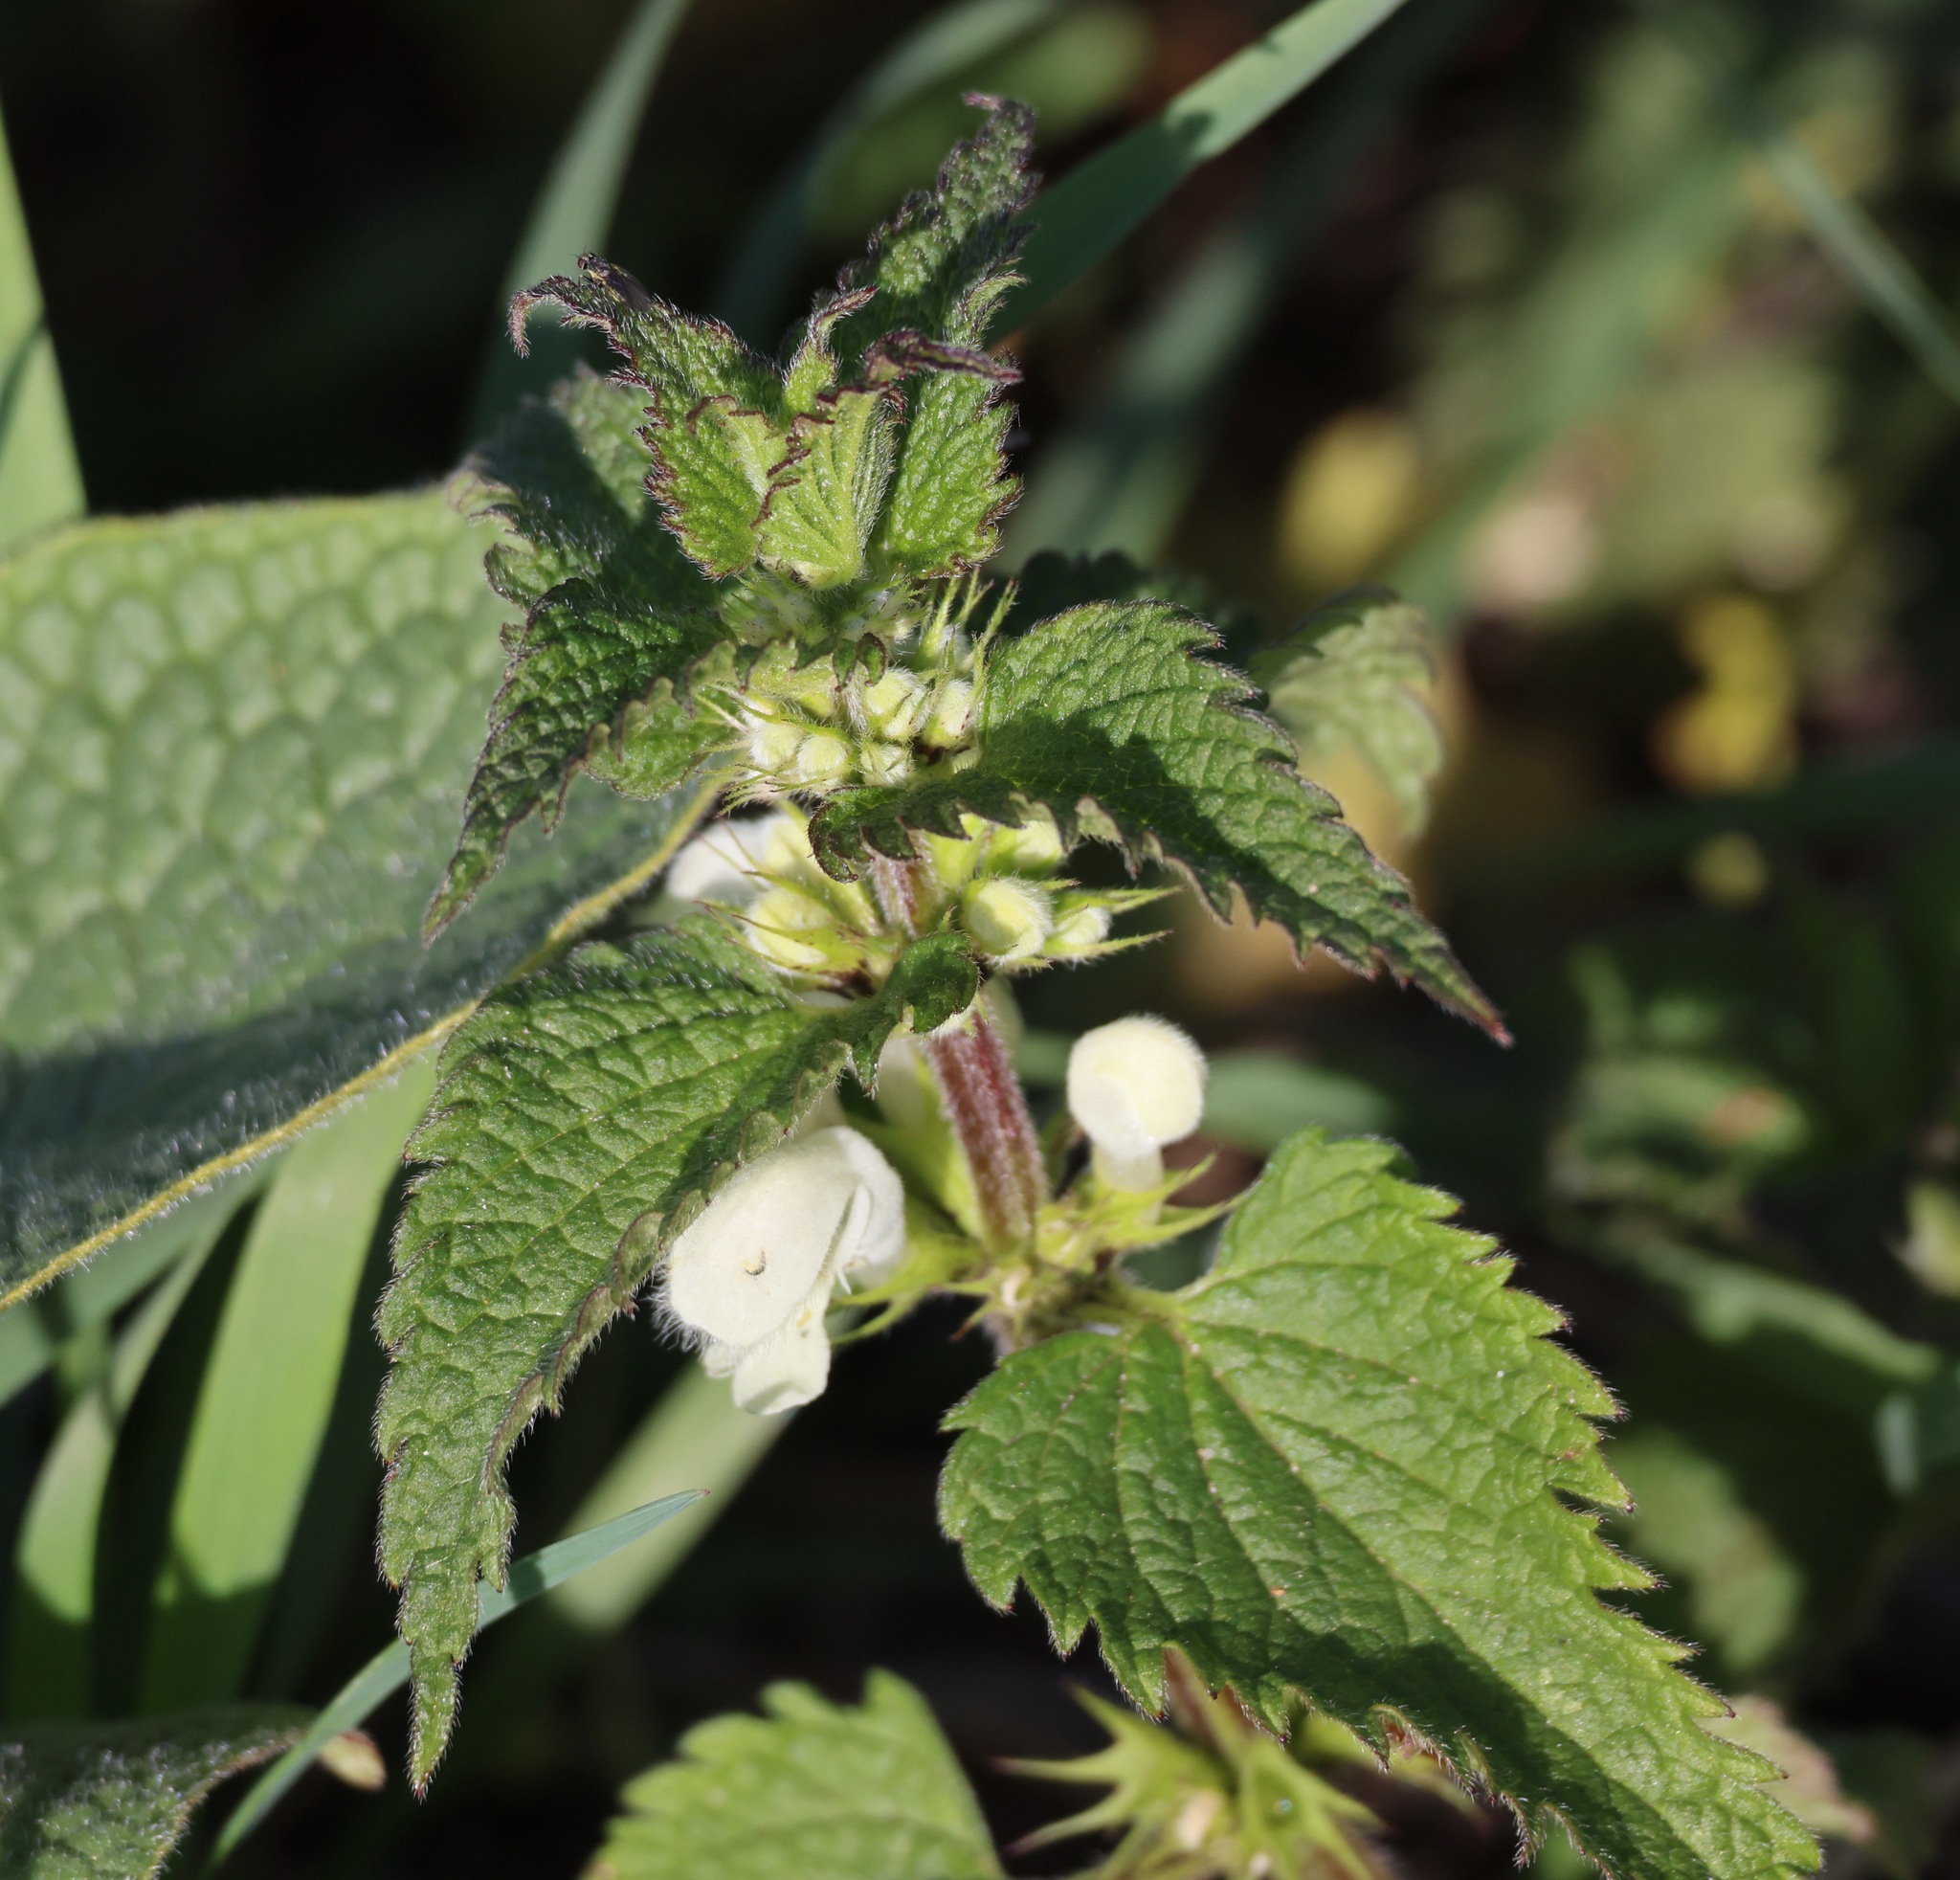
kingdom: Plantae
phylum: Tracheophyta
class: Magnoliopsida
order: Lamiales
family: Lamiaceae
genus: Lamium
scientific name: Lamium album
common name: White dead-nettle
